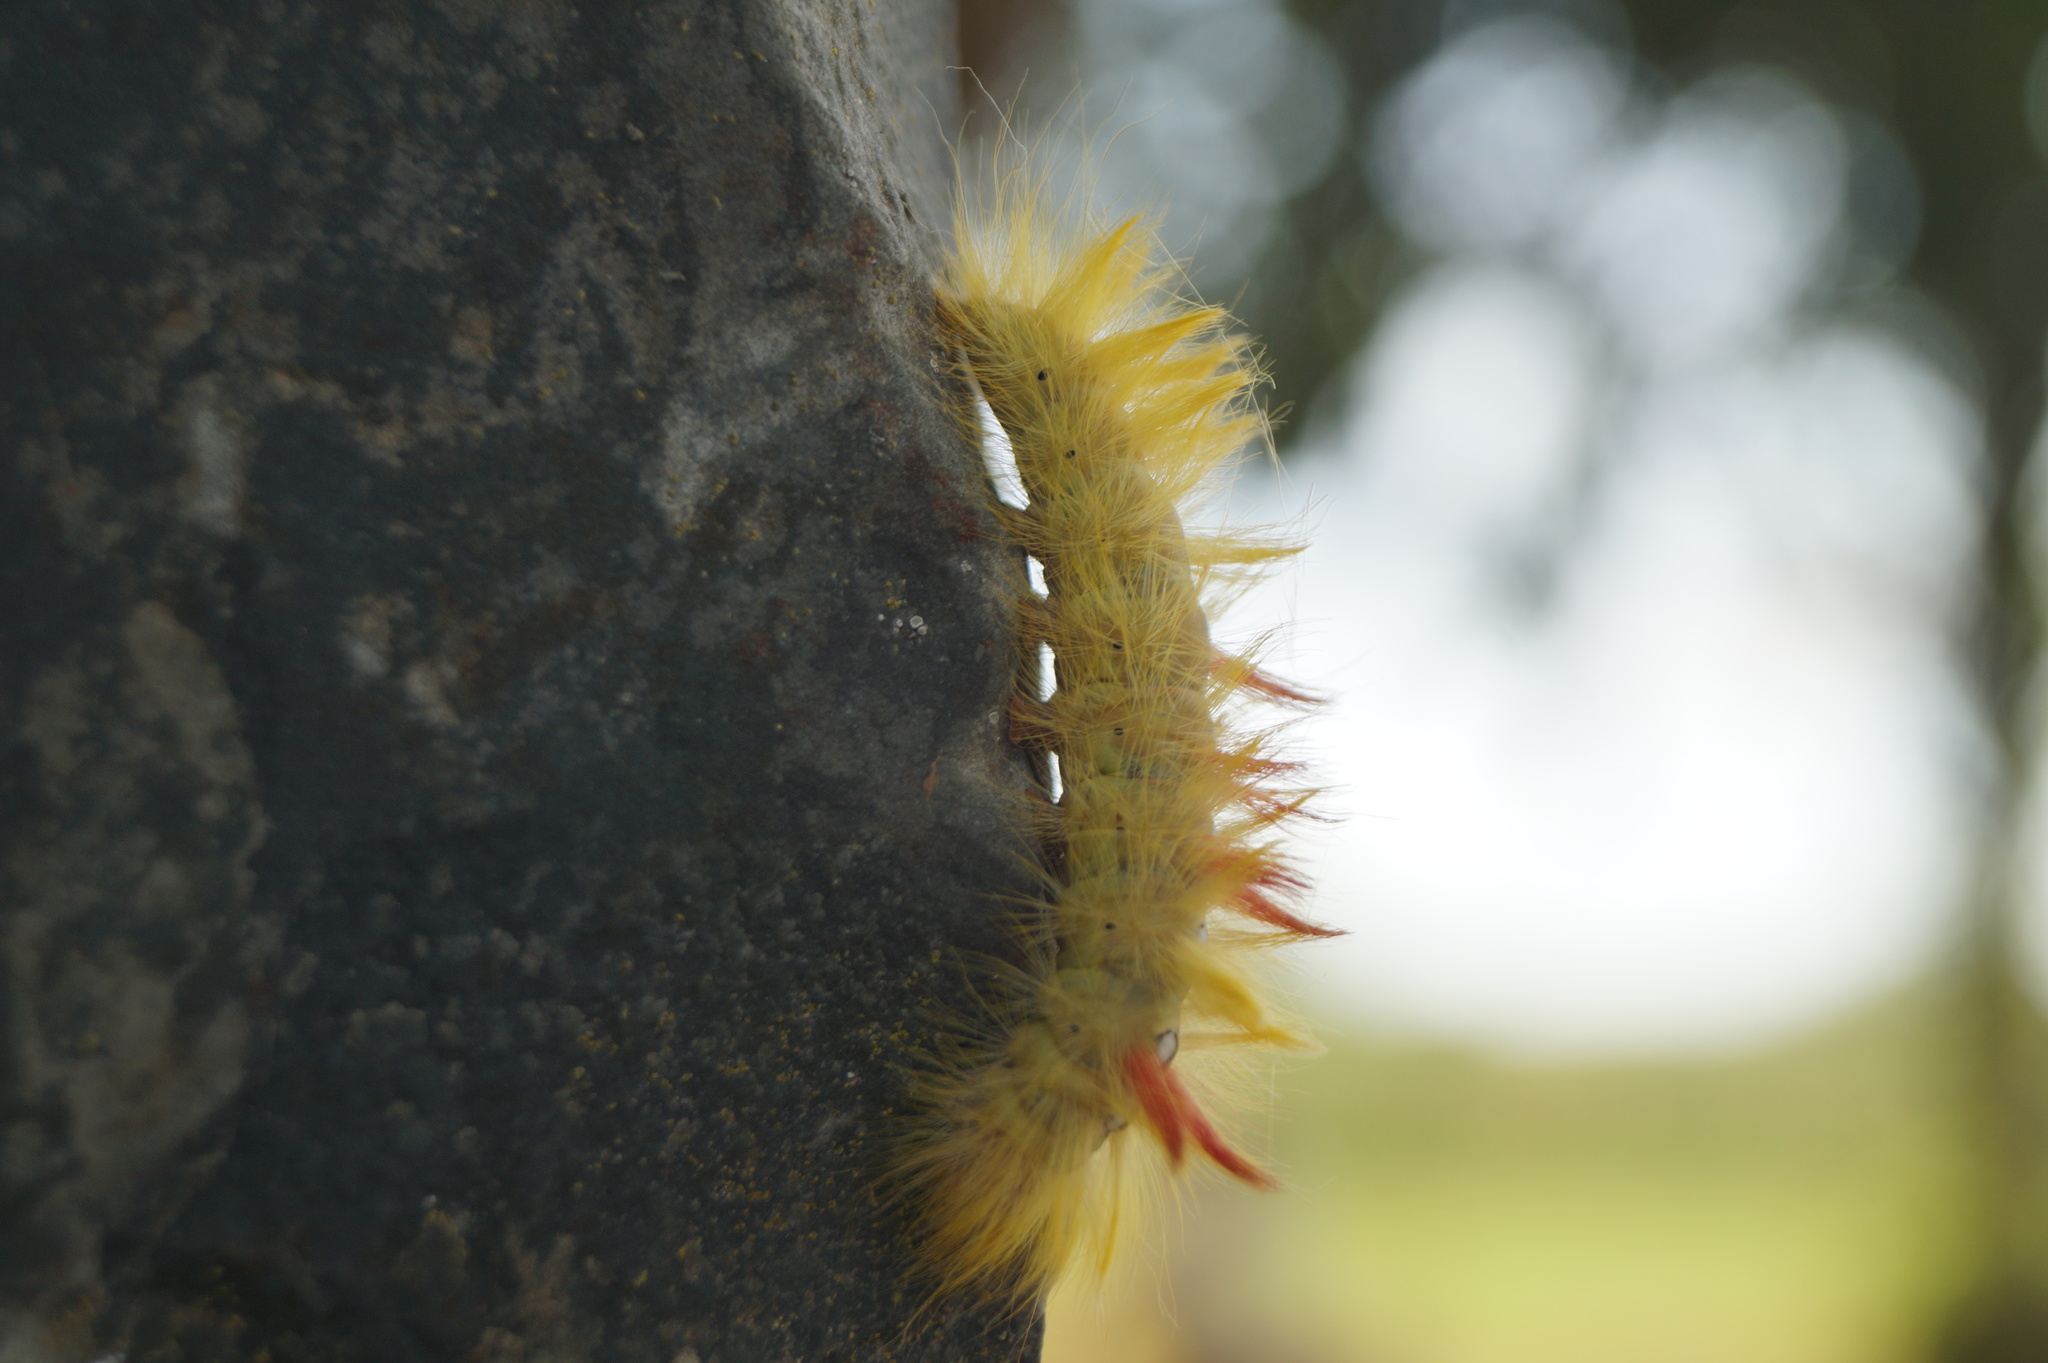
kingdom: Animalia
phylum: Arthropoda
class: Insecta
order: Lepidoptera
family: Noctuidae
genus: Acronicta
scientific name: Acronicta aceris
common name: Sycamore
